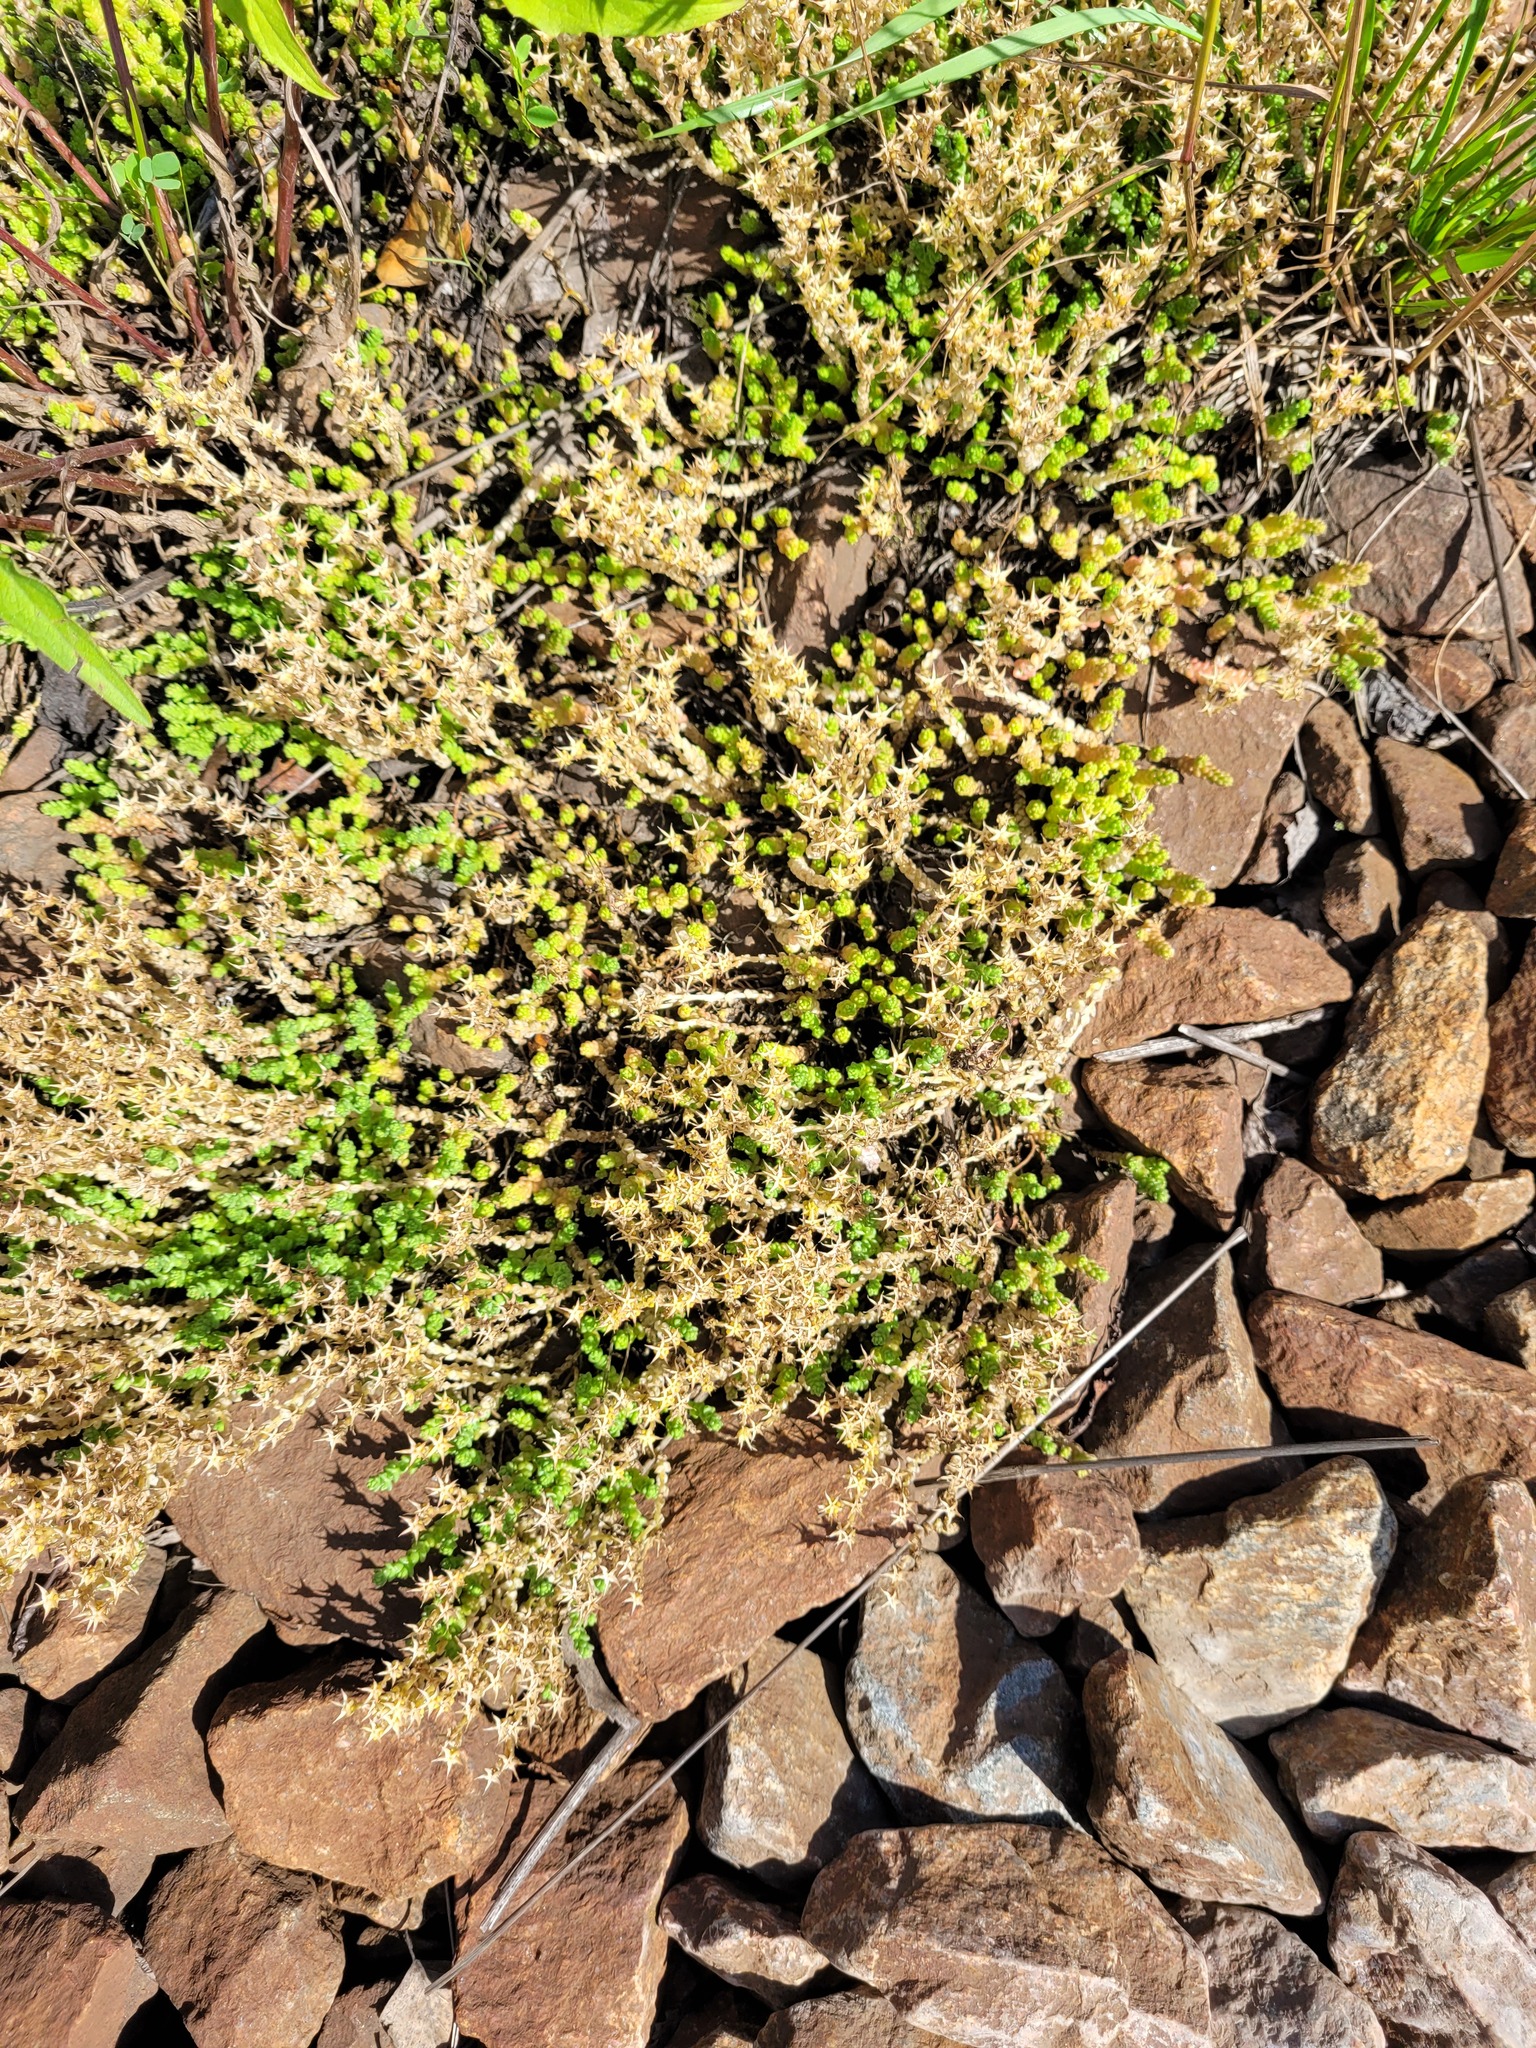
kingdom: Plantae
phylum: Tracheophyta
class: Magnoliopsida
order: Saxifragales
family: Crassulaceae
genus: Sedum
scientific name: Sedum acre
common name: Biting stonecrop
